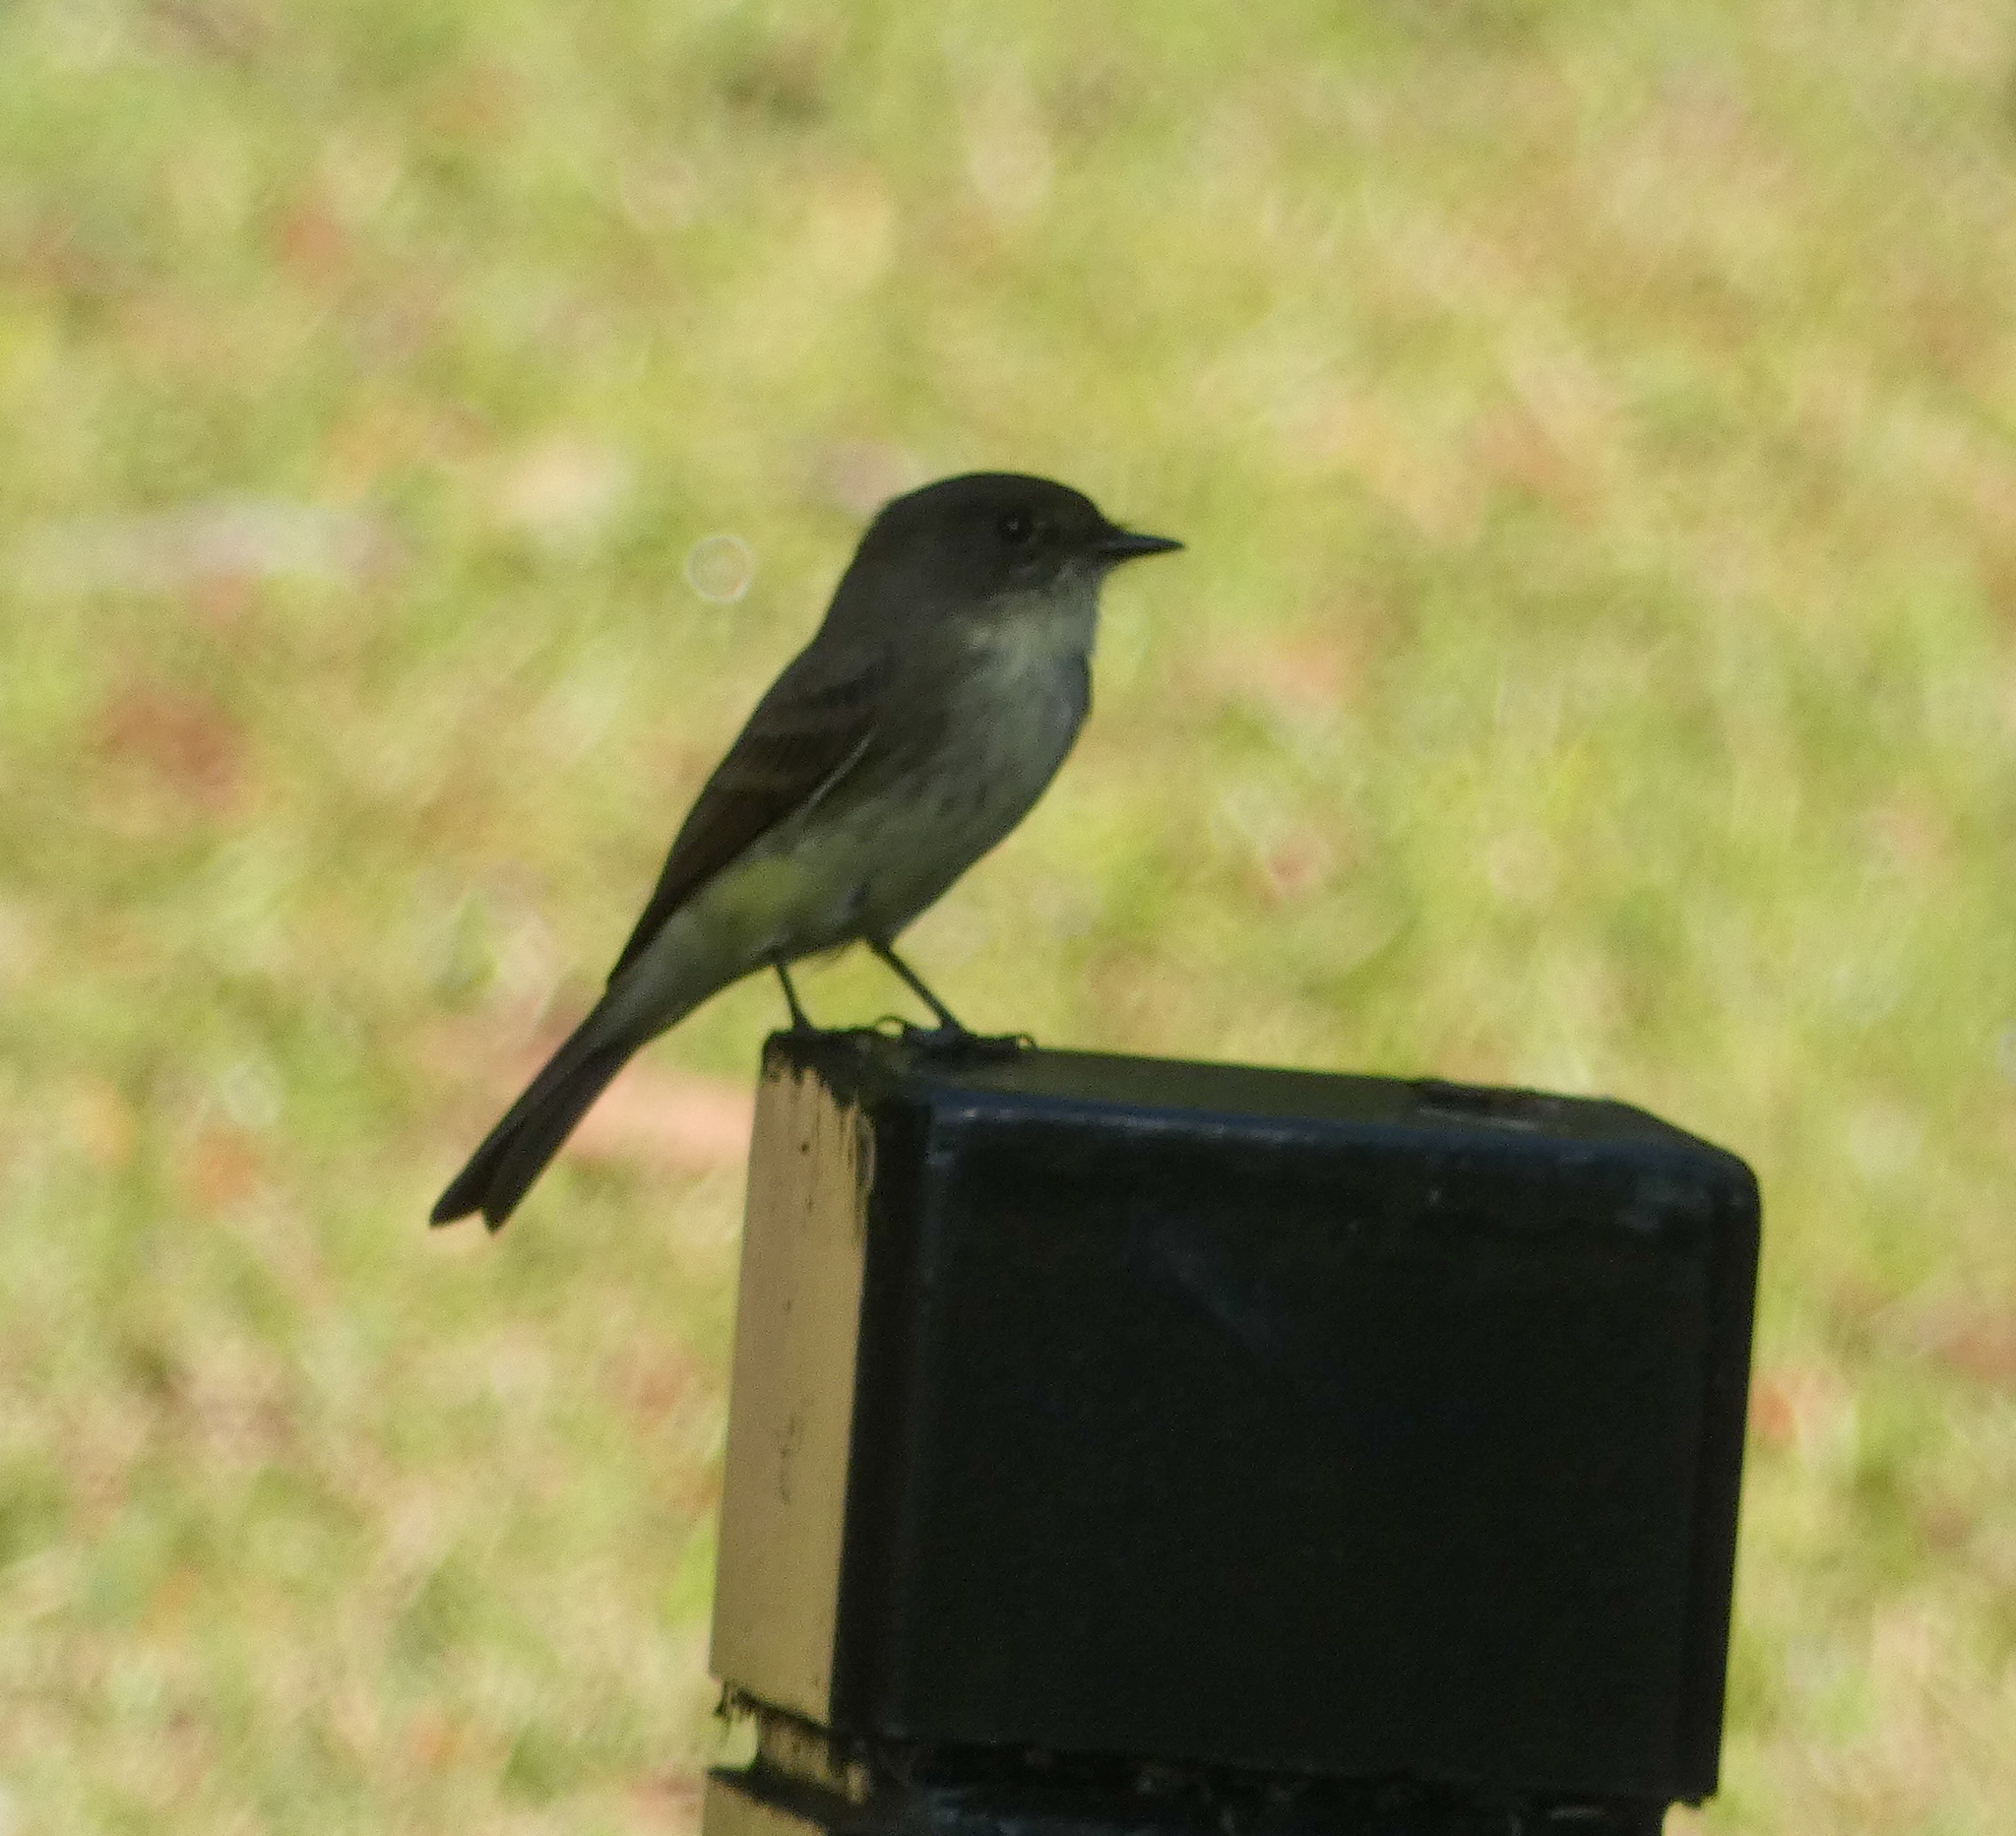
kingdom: Animalia
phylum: Chordata
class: Aves
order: Passeriformes
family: Tyrannidae
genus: Sayornis
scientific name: Sayornis phoebe
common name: Eastern phoebe
